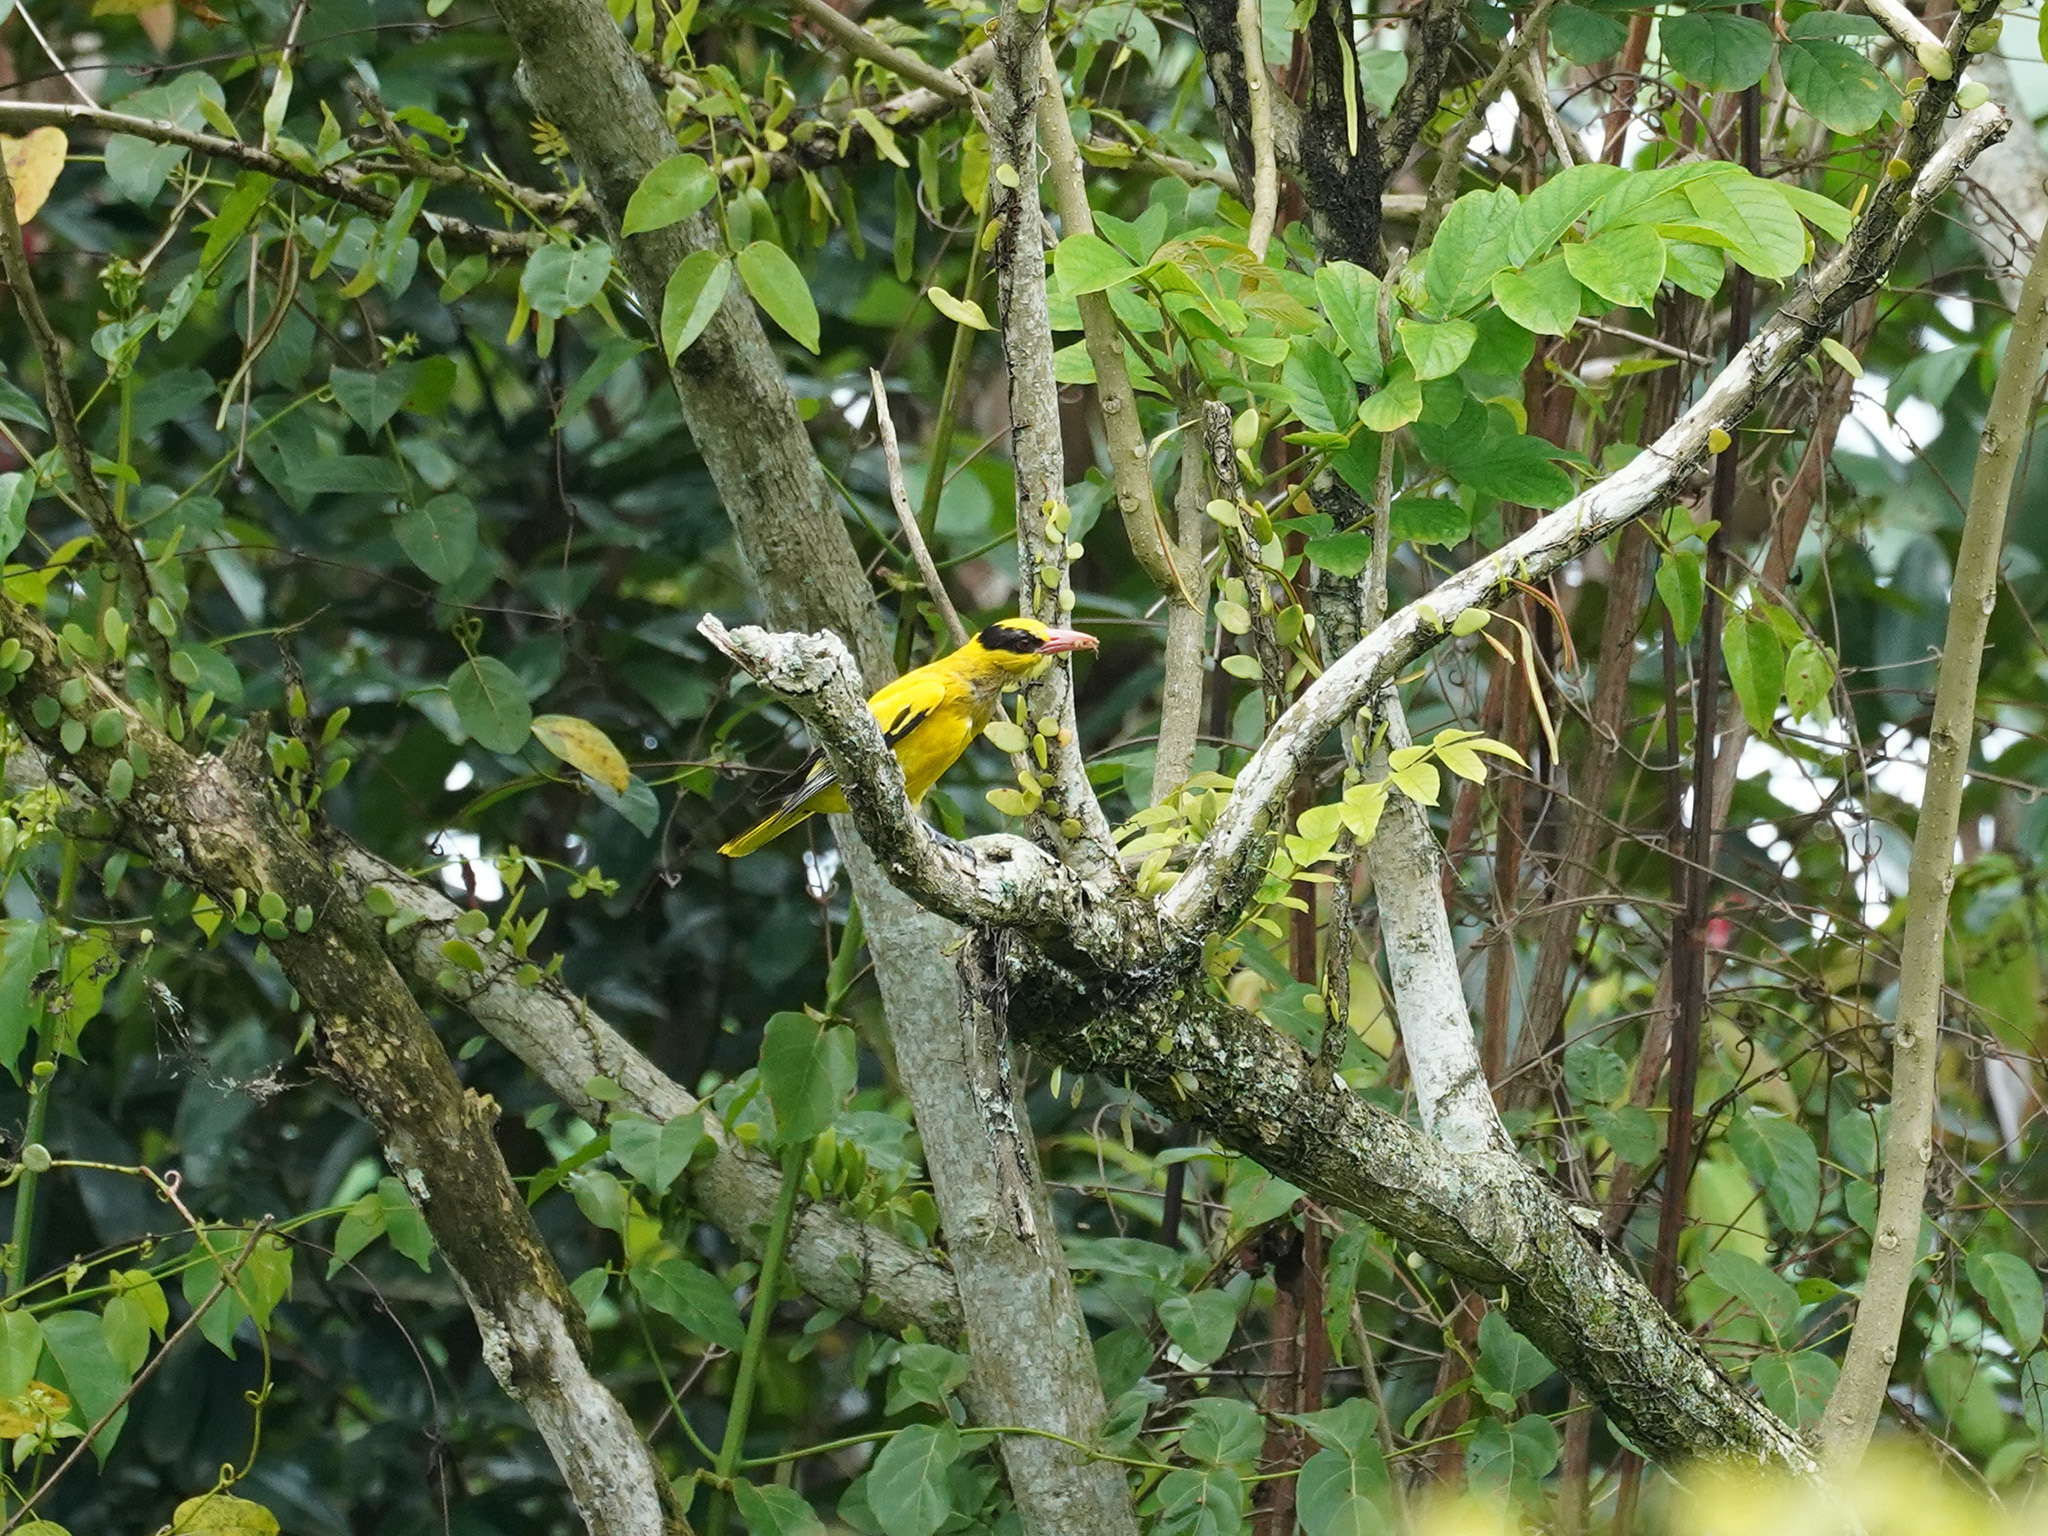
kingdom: Animalia
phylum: Chordata
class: Aves
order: Passeriformes
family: Oriolidae
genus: Oriolus
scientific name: Oriolus chinensis
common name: Black-naped oriole
